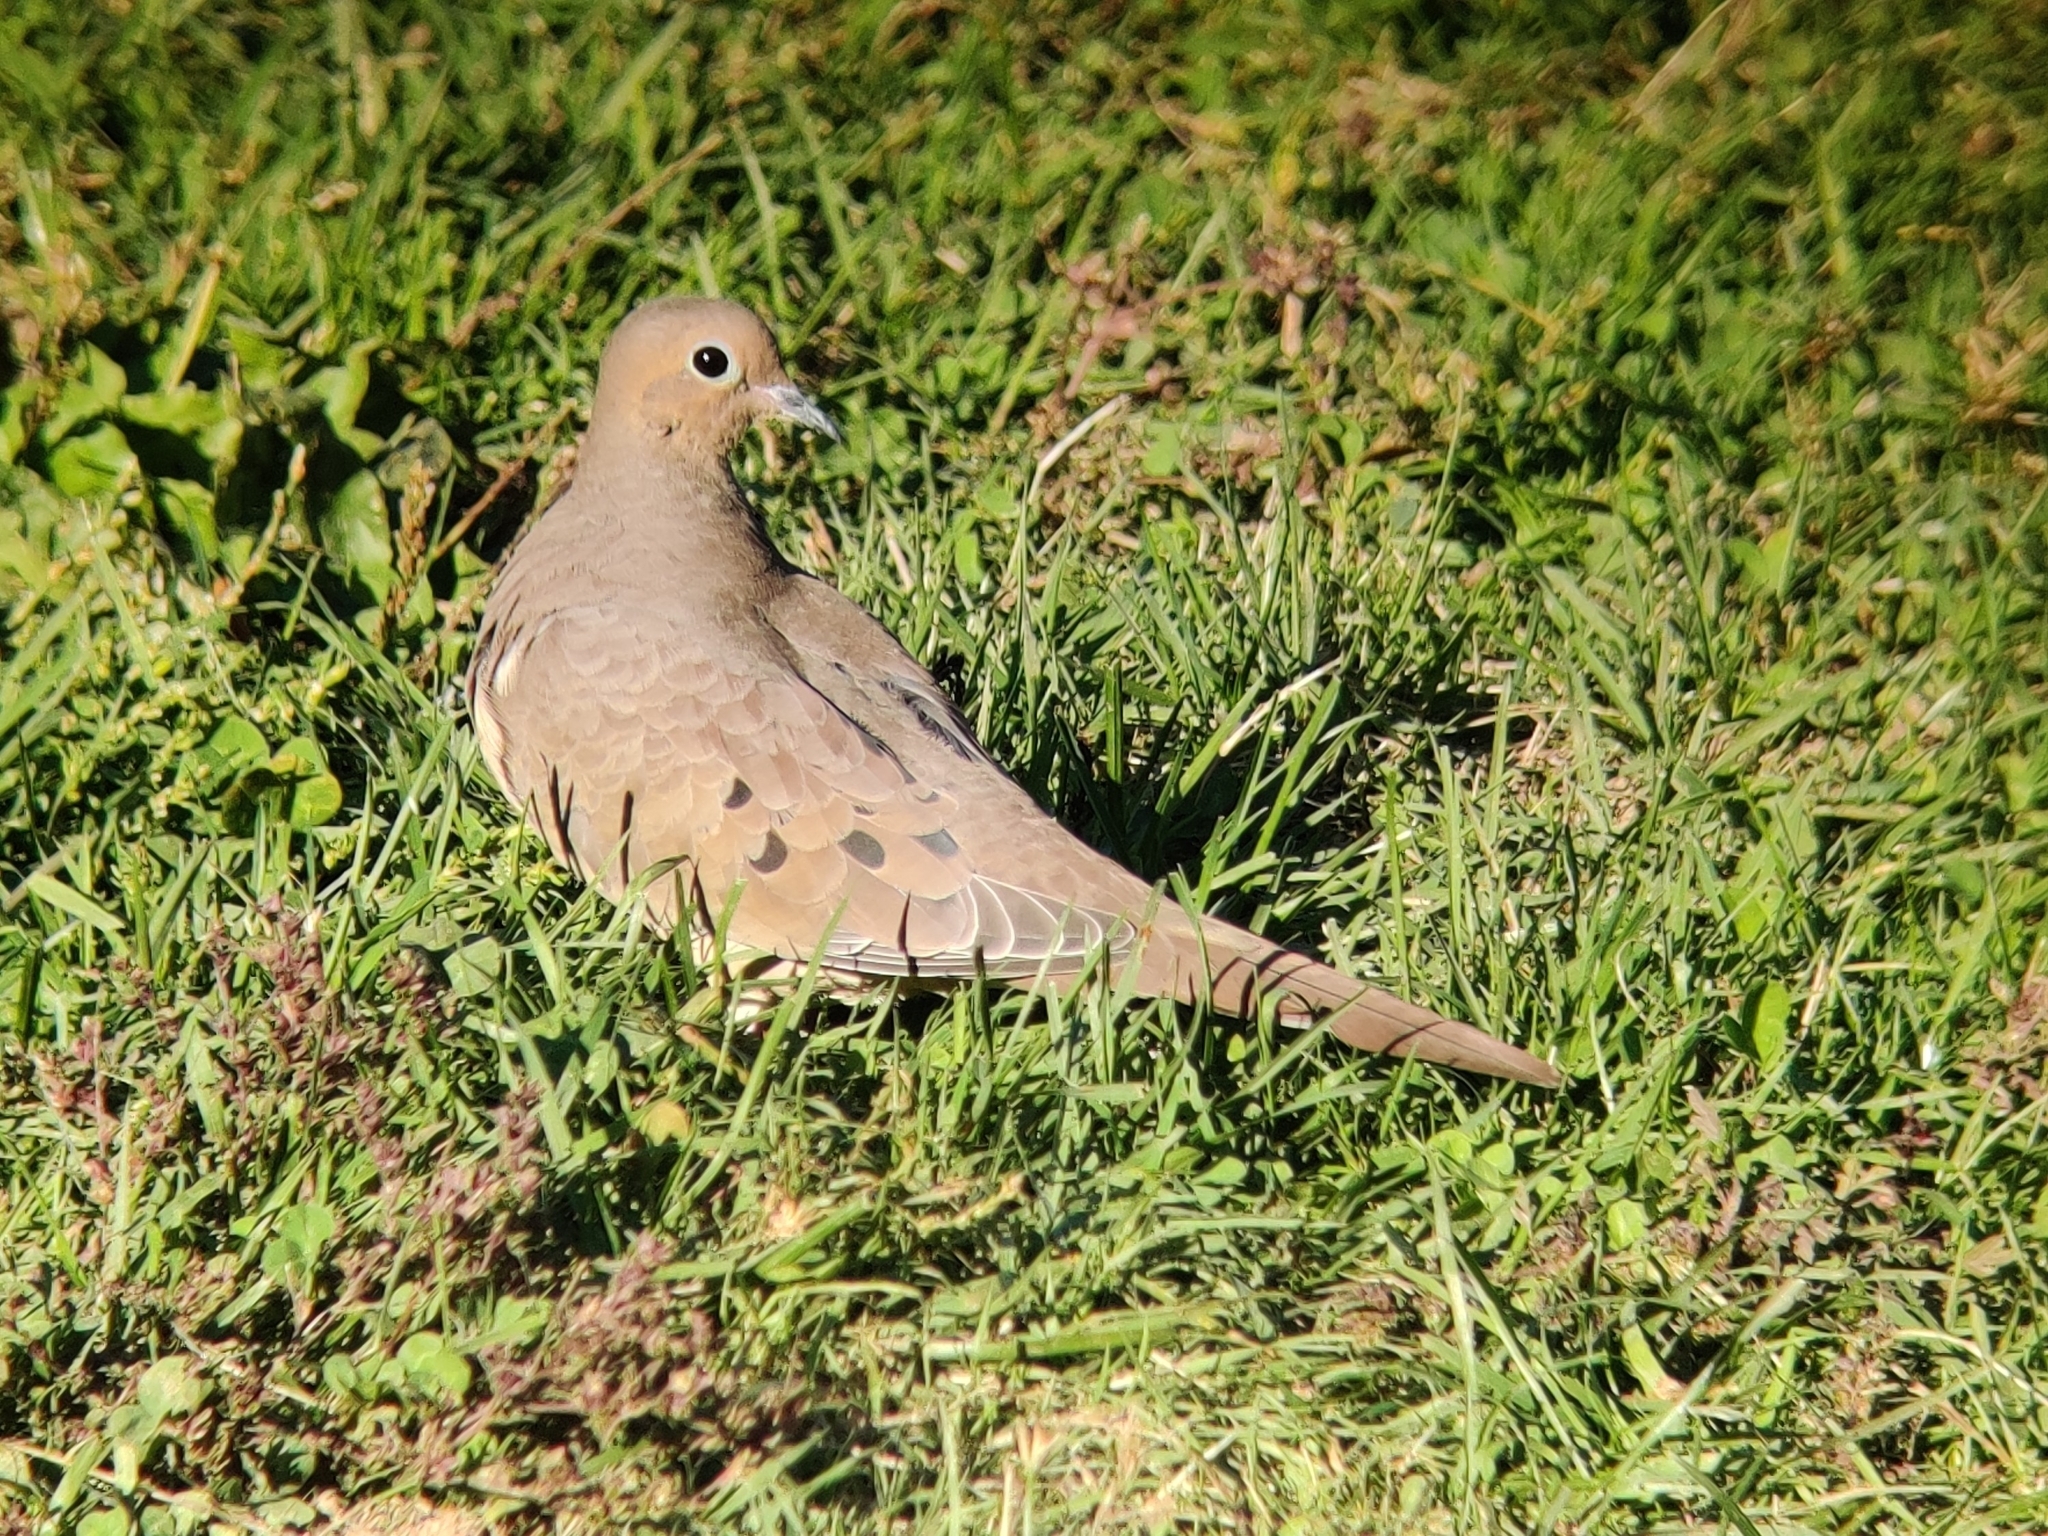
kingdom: Animalia
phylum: Chordata
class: Aves
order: Columbiformes
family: Columbidae
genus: Zenaida
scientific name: Zenaida macroura
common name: Mourning dove
